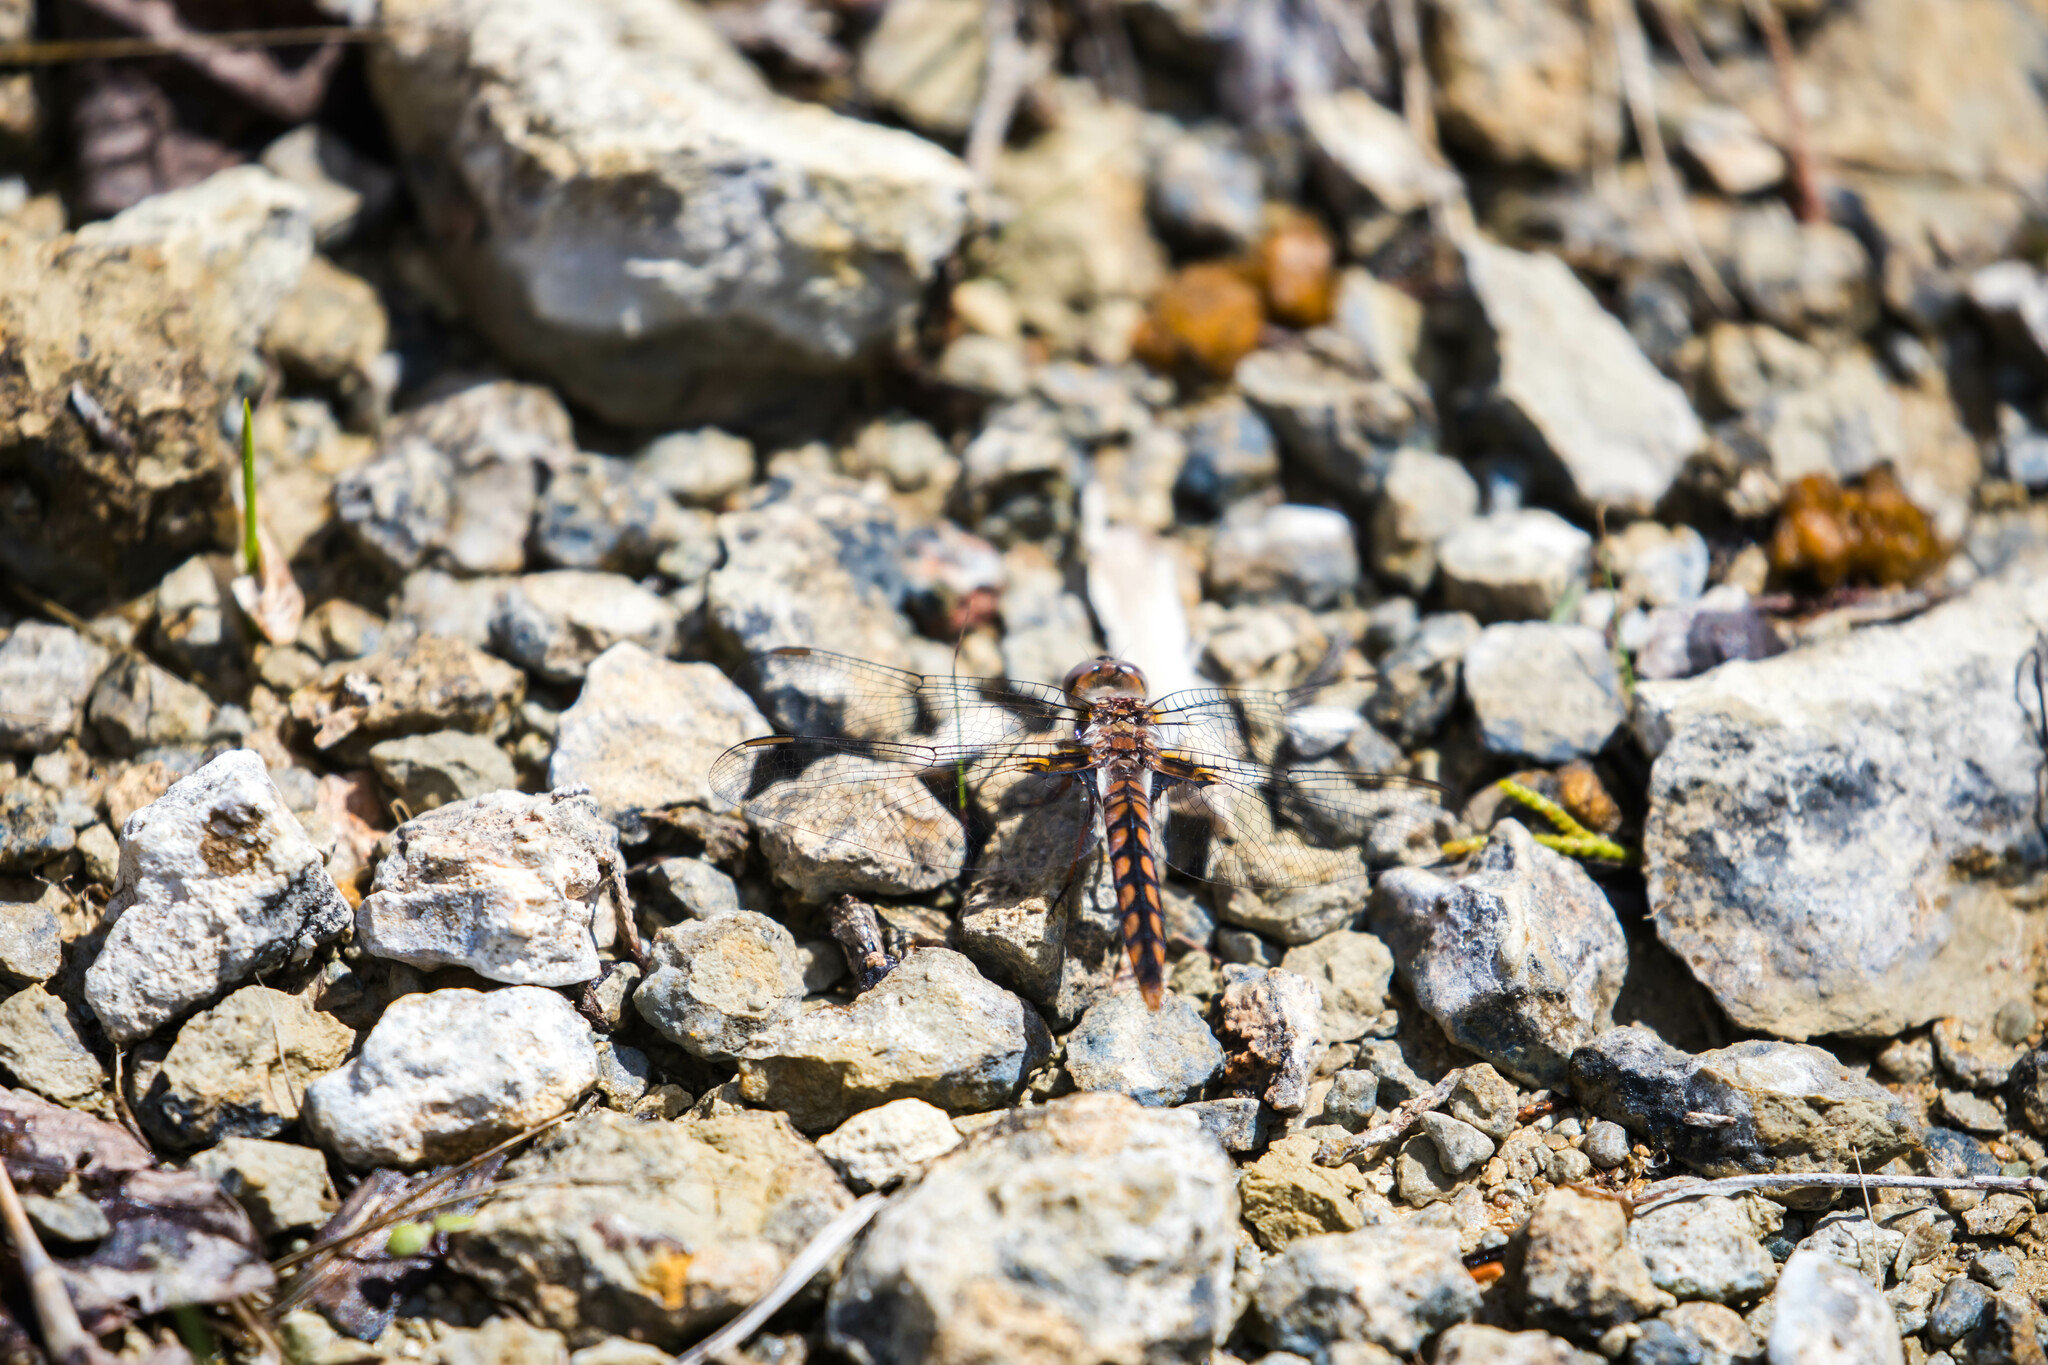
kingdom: Animalia
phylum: Arthropoda
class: Insecta
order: Odonata
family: Libellulidae
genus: Ladona
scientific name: Ladona deplanata
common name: Blue corporal
